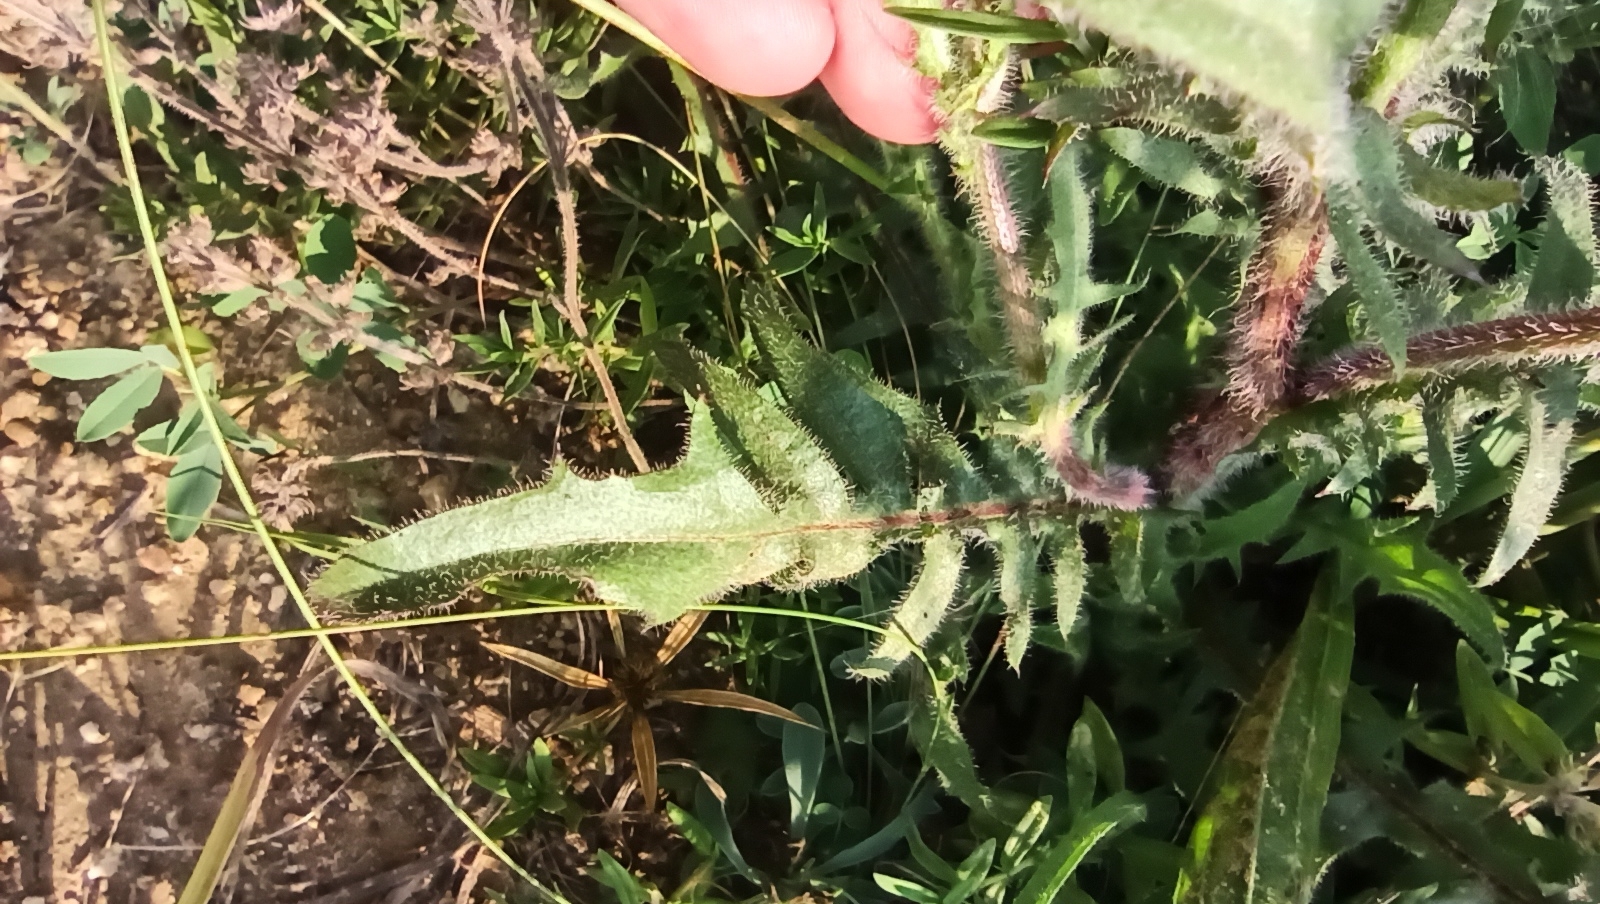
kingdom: Plantae
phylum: Tracheophyta
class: Magnoliopsida
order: Asterales
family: Asteraceae
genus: Crepis
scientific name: Crepis foetida
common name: Stinking hawk's-beard
